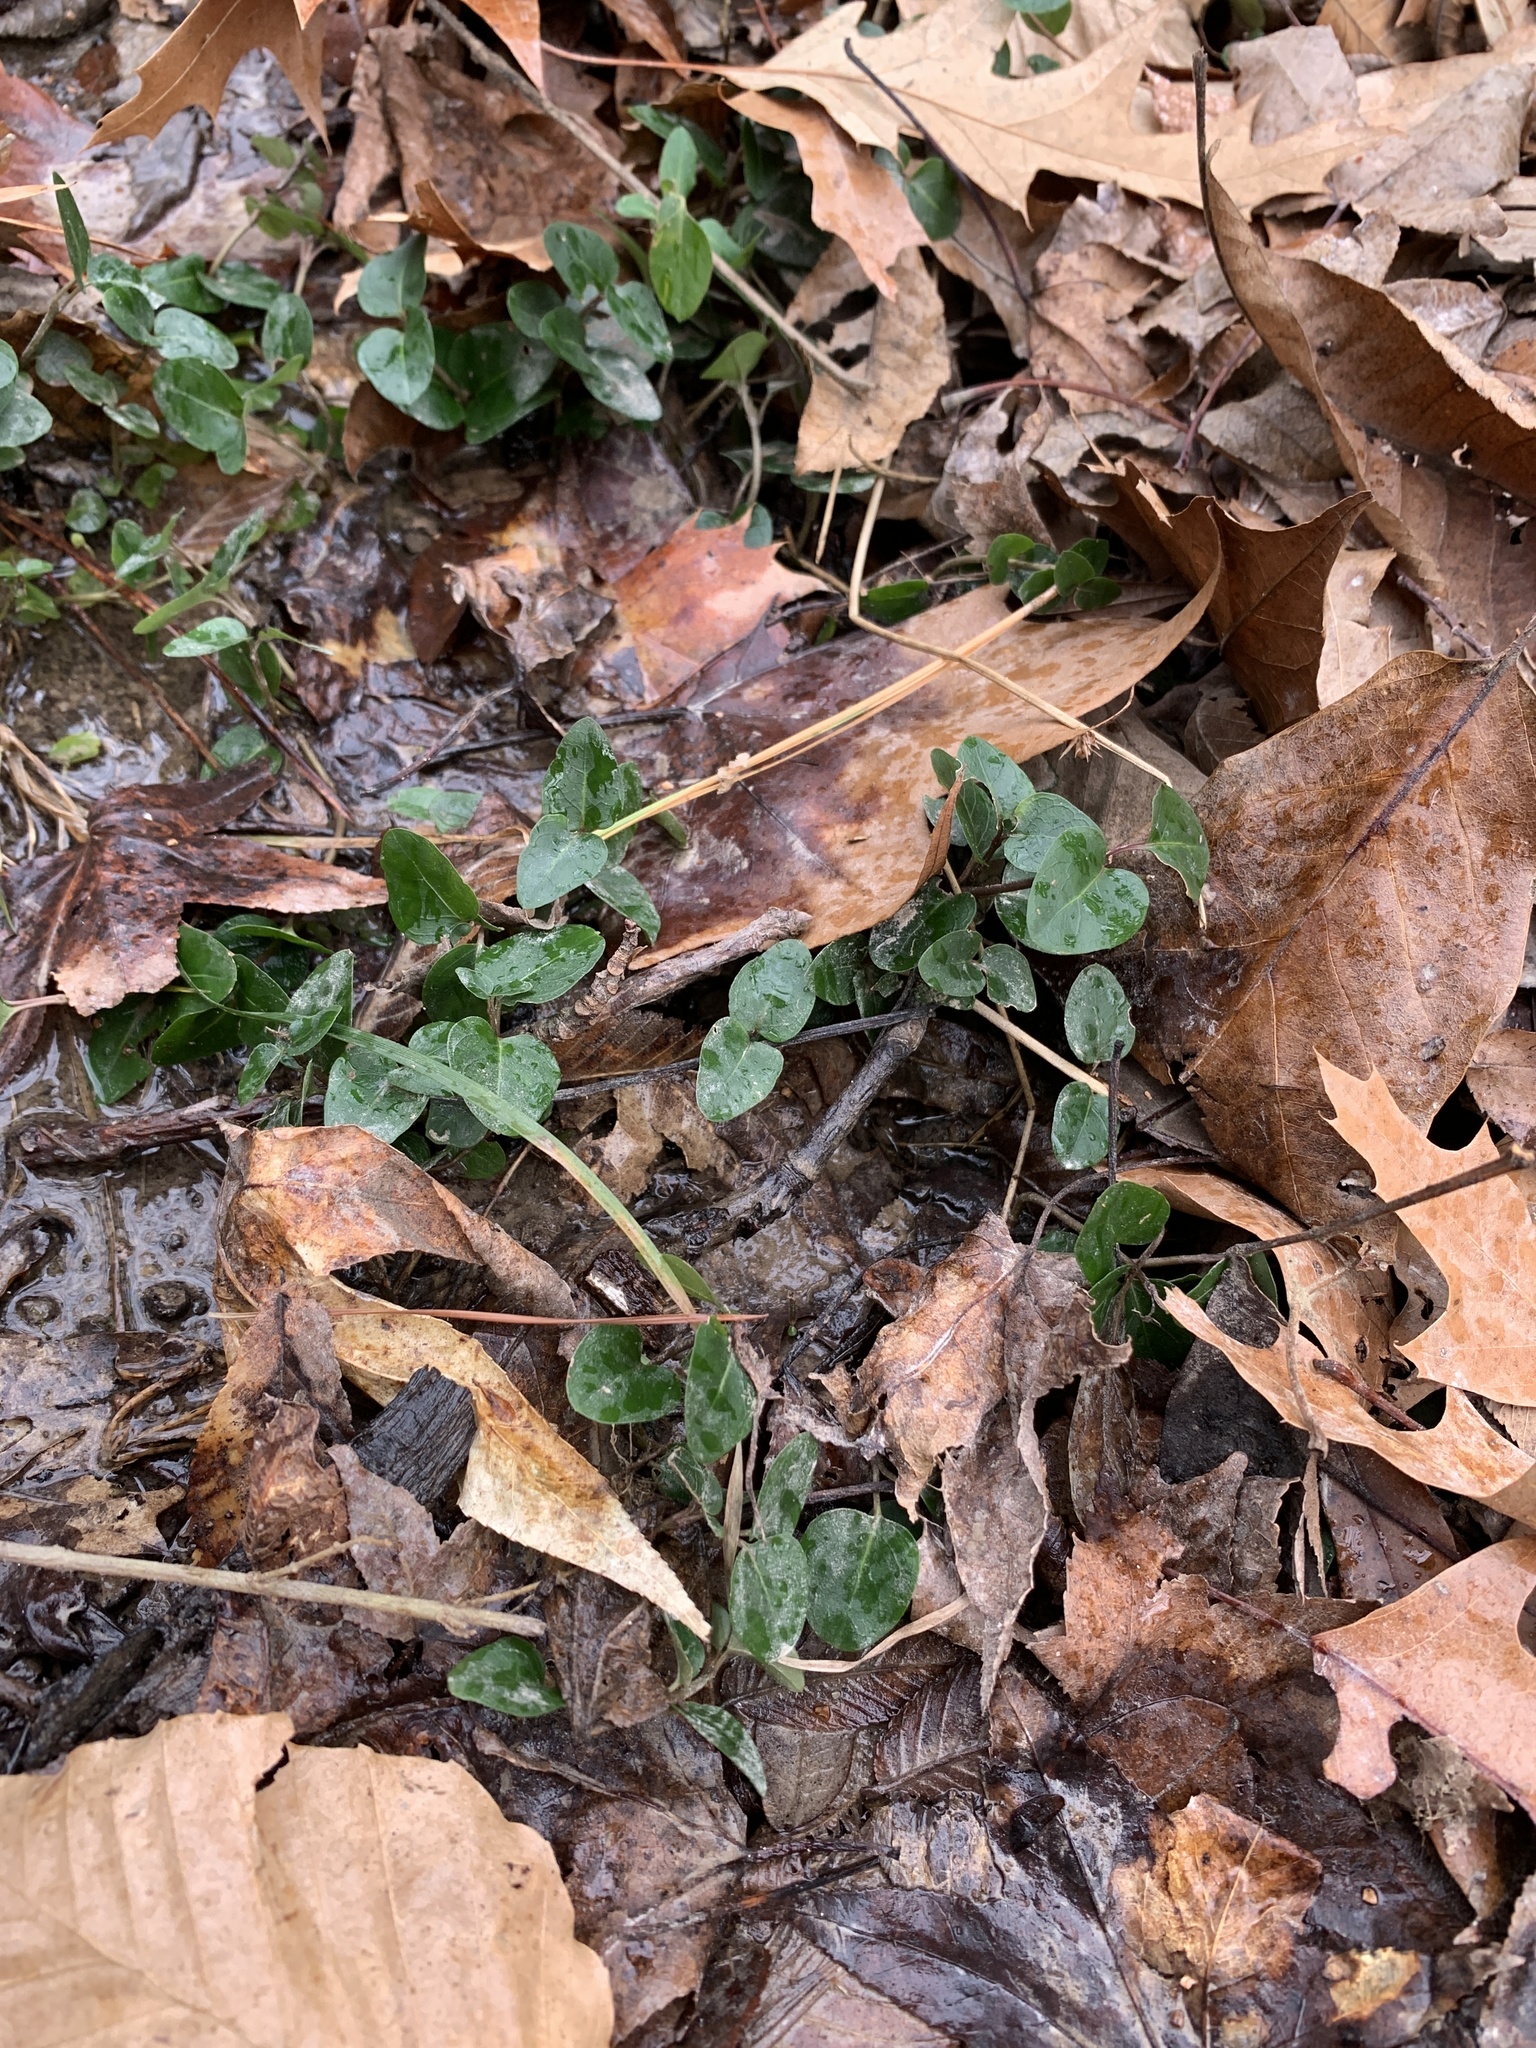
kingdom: Plantae
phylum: Tracheophyta
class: Magnoliopsida
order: Gentianales
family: Rubiaceae
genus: Mitchella
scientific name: Mitchella repens
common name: Partridge-berry
